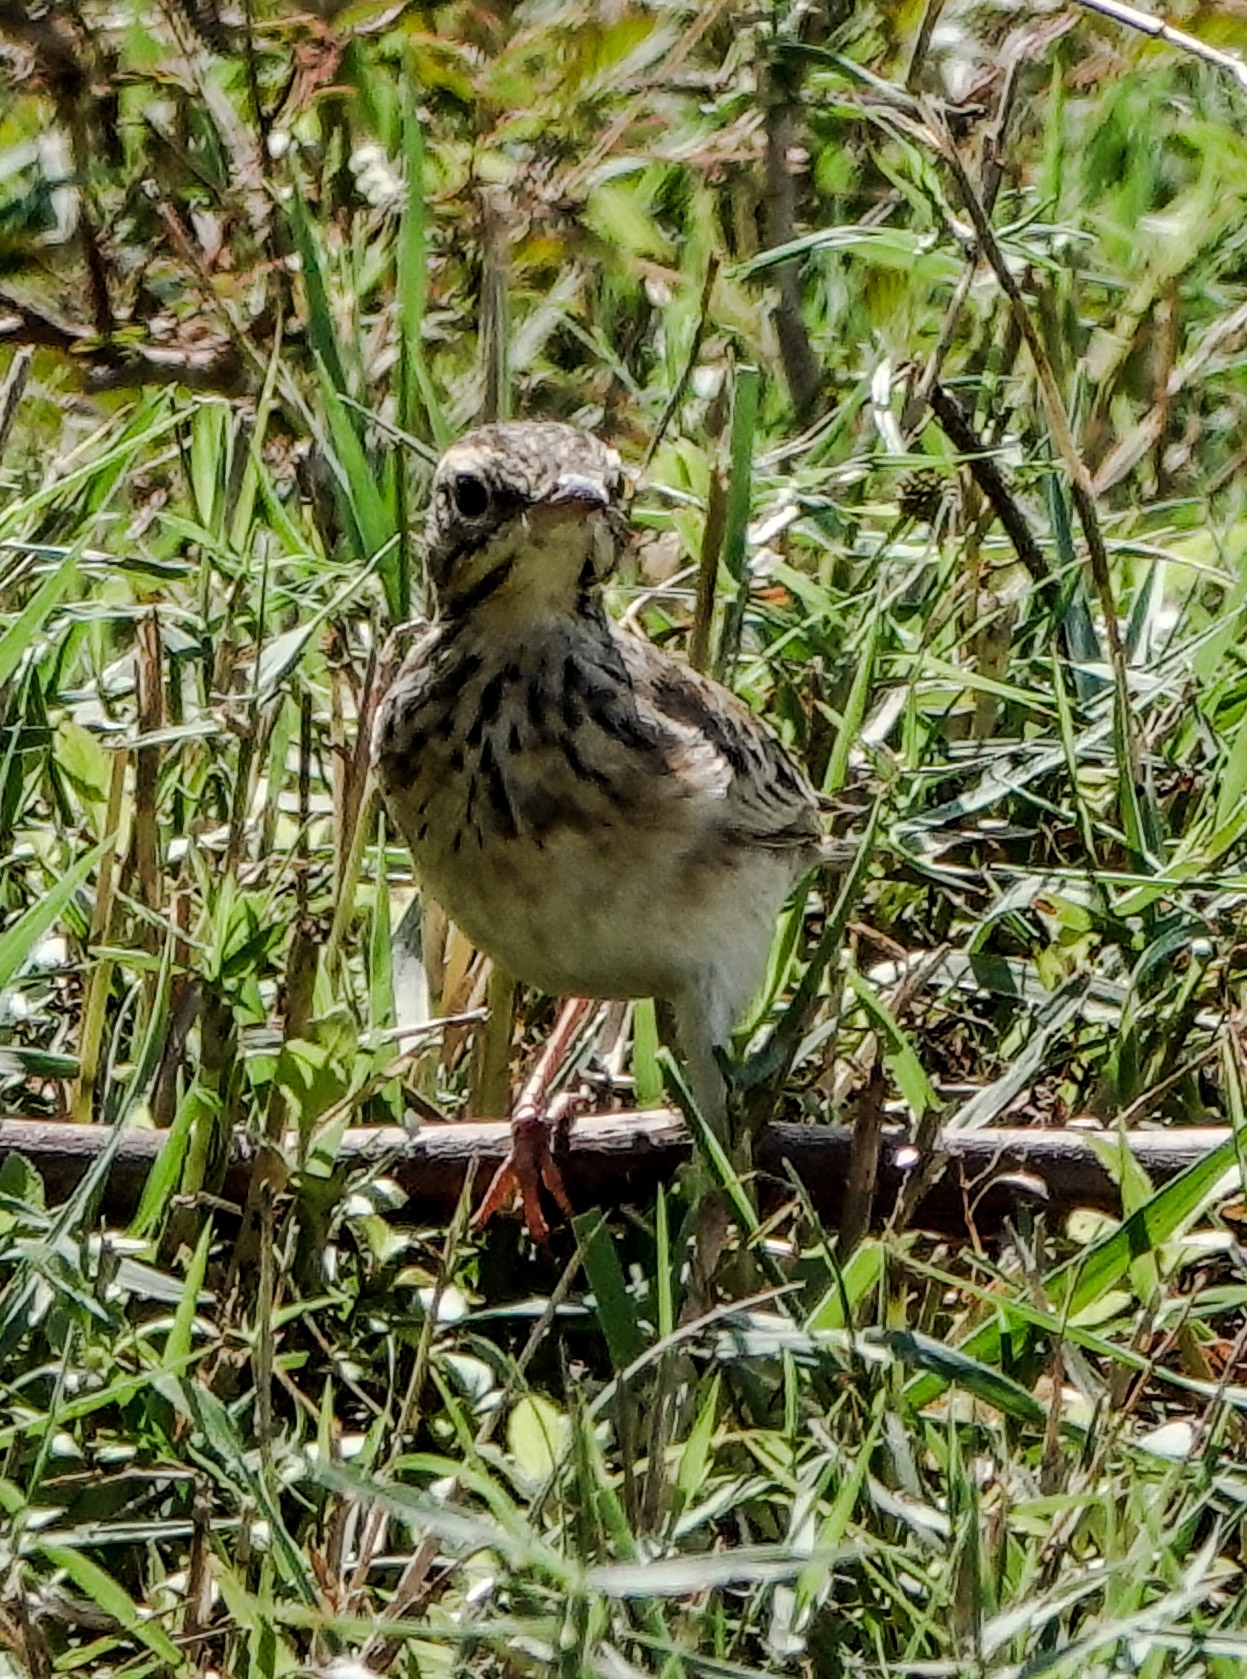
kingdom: Animalia
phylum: Chordata
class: Aves
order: Passeriformes
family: Motacillidae
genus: Anthus
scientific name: Anthus rufulus
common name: Paddyfield pipit
